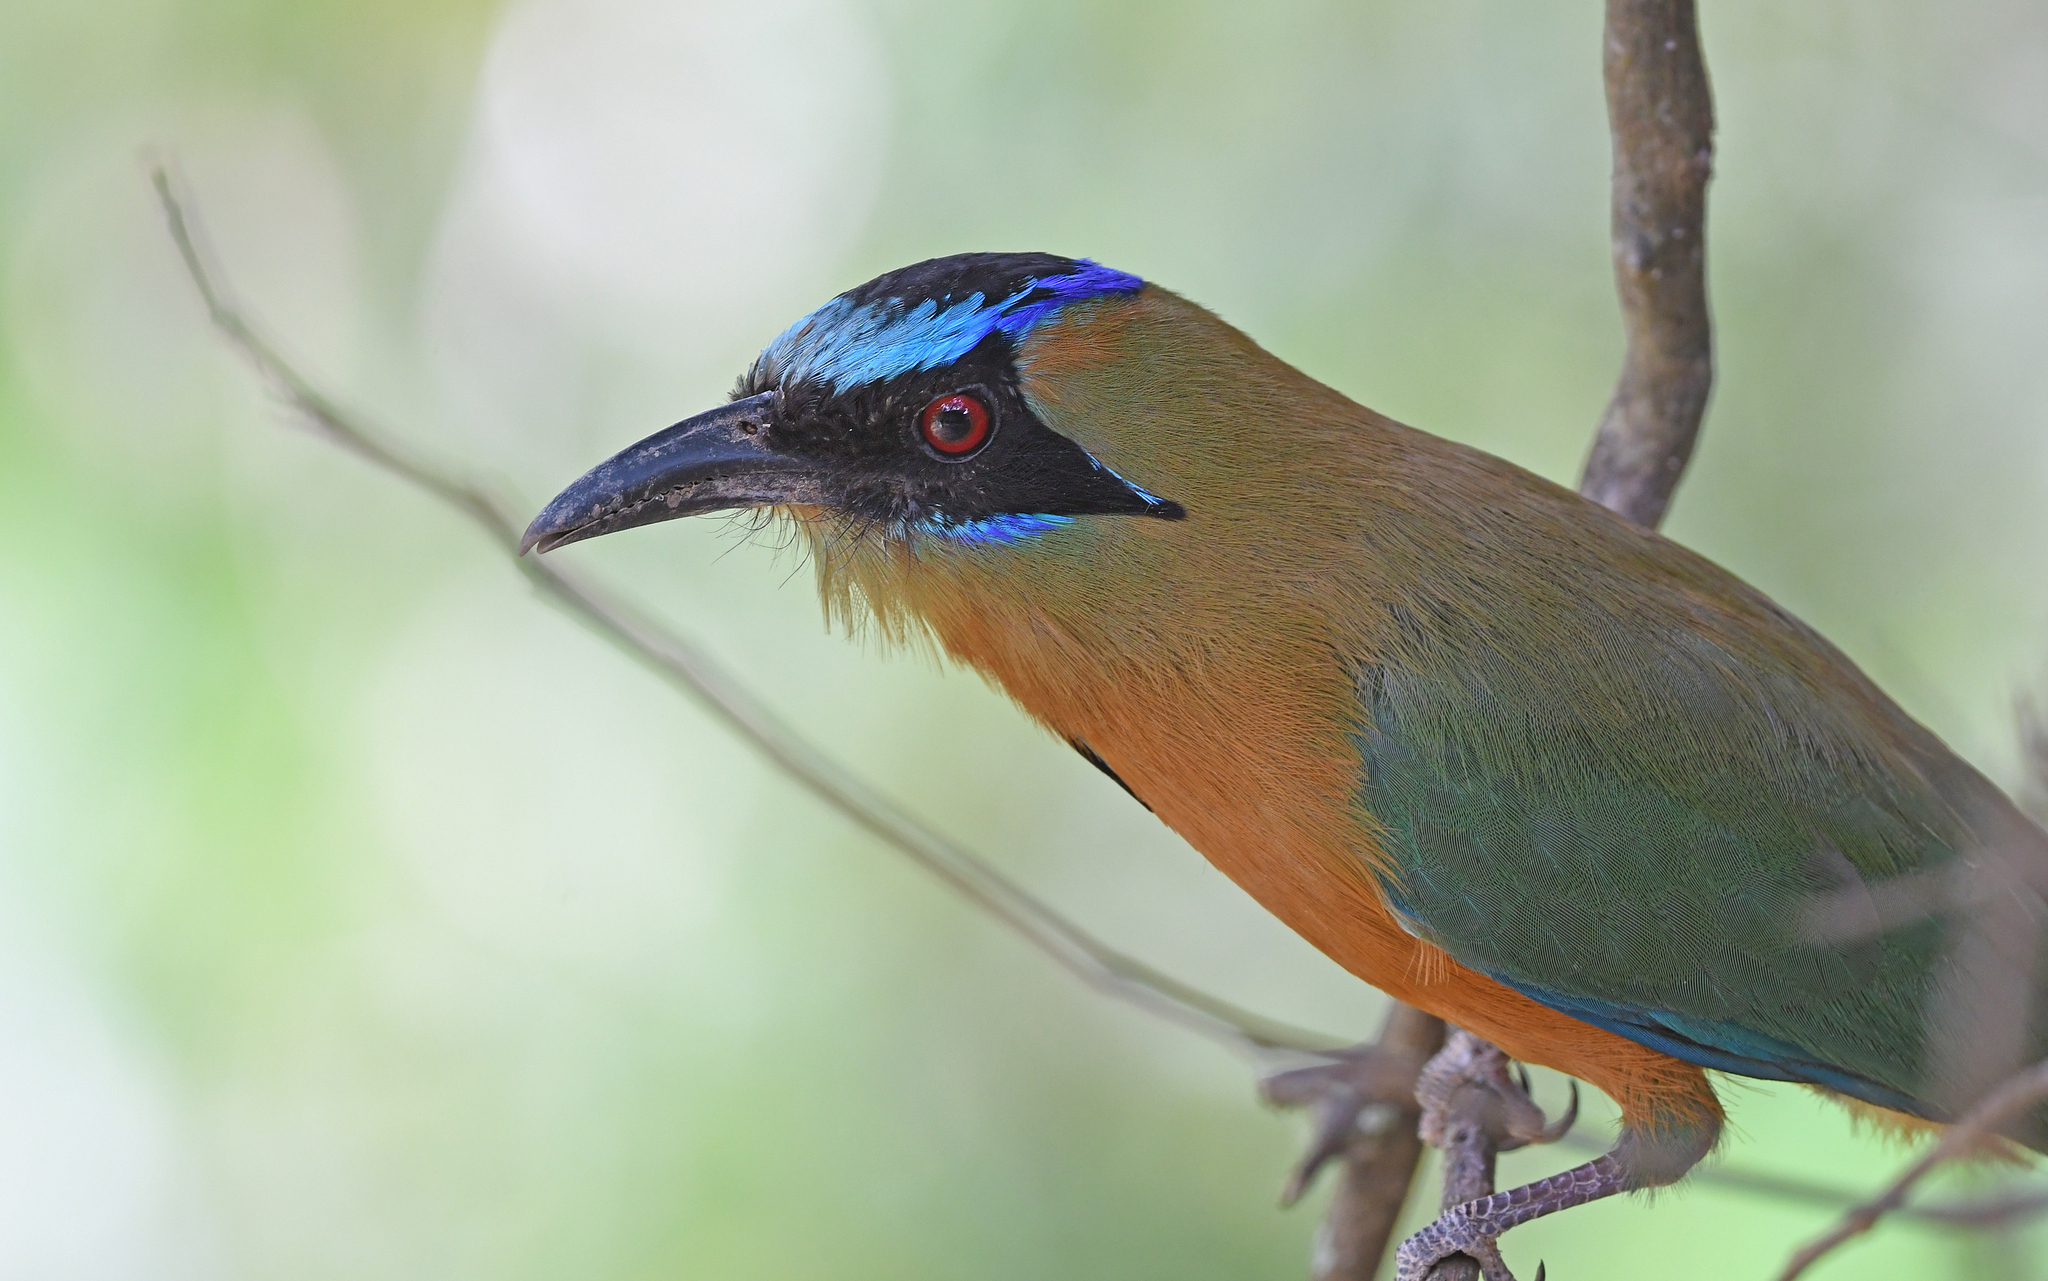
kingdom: Animalia
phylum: Chordata
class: Aves
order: Coraciiformes
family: Momotidae
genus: Momotus
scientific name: Momotus subrufescens
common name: Whooping motmot
